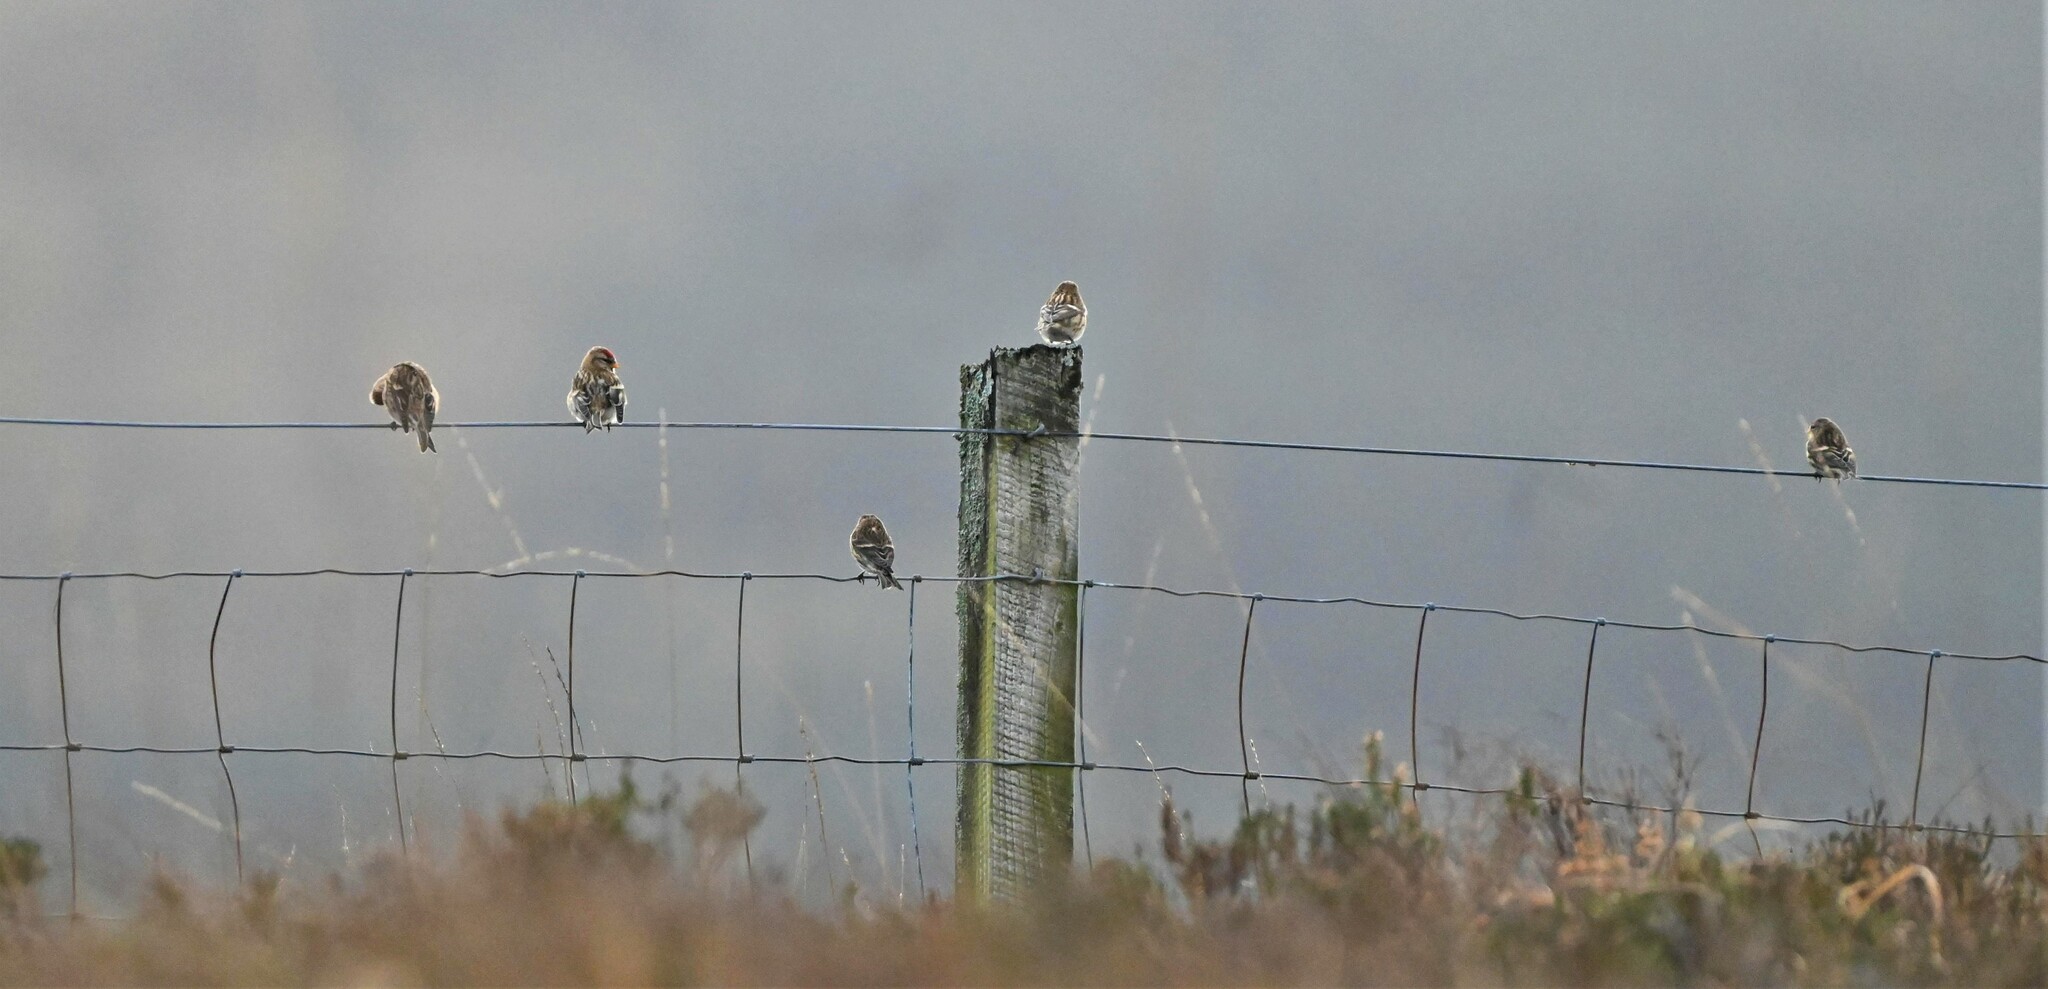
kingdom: Animalia
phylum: Chordata
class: Aves
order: Passeriformes
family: Fringillidae
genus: Acanthis
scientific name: Acanthis flammea
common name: Common redpoll
